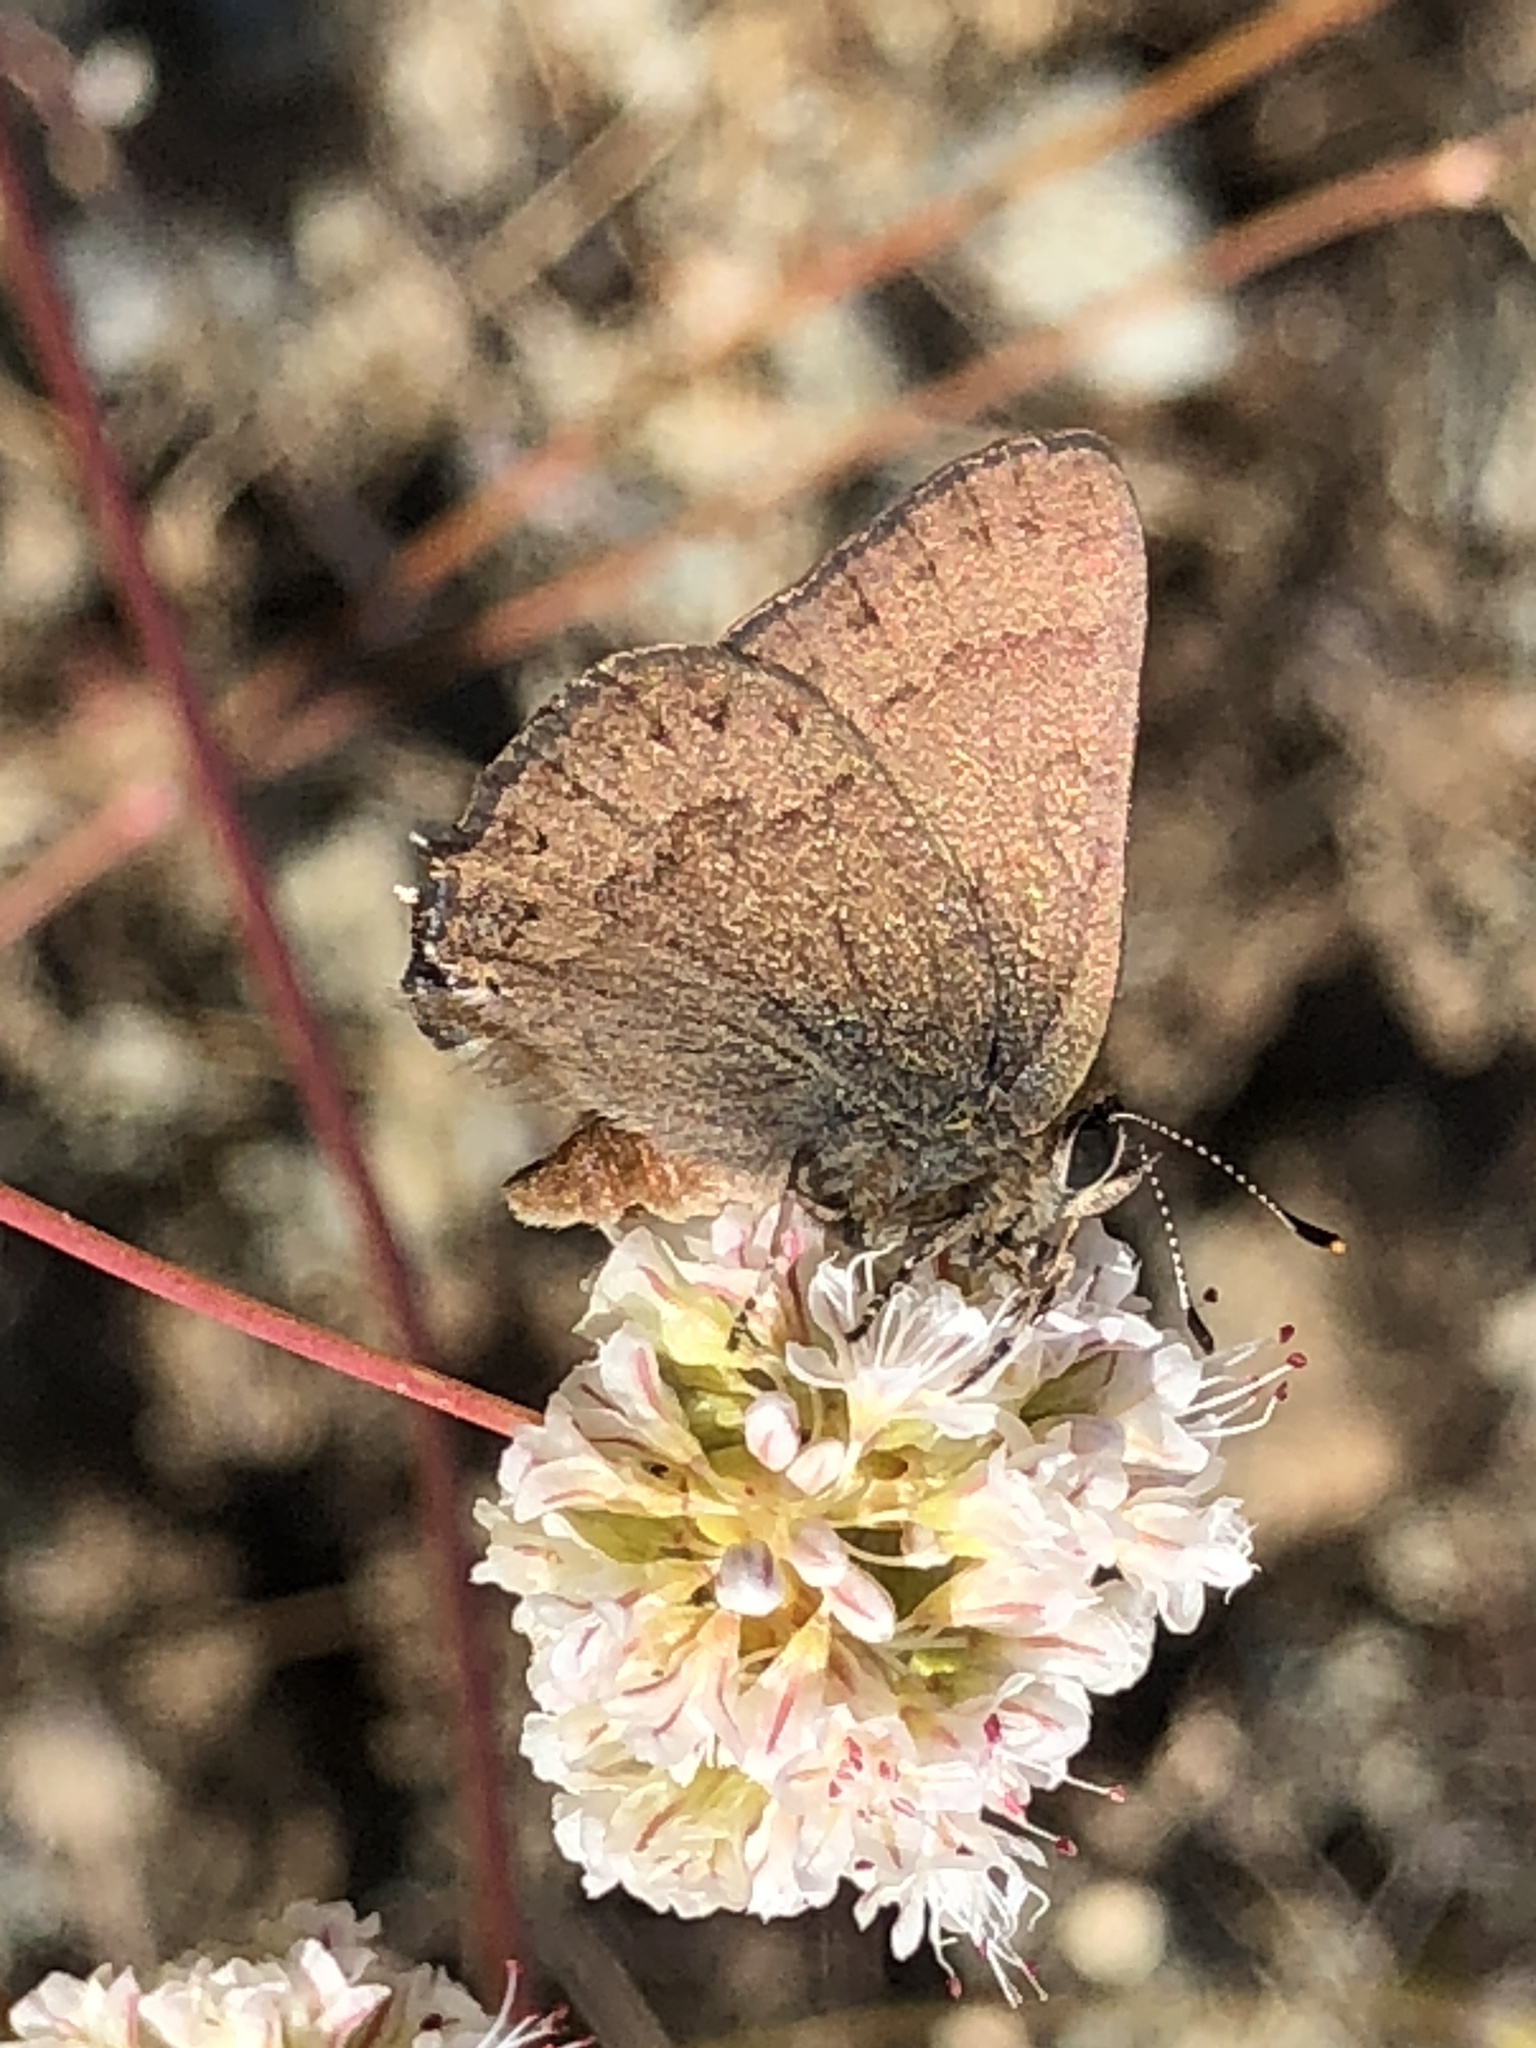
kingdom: Animalia
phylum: Arthropoda
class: Insecta
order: Lepidoptera
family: Lycaenidae
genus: Strymon
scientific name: Strymon saepium
